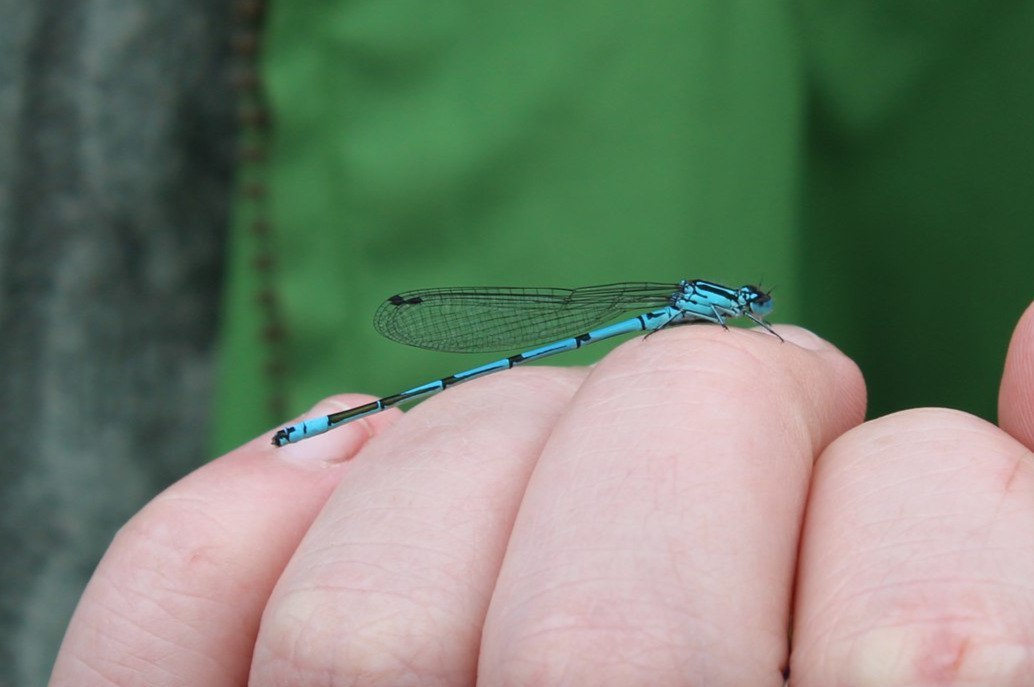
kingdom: Animalia
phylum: Arthropoda
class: Insecta
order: Odonata
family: Coenagrionidae
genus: Coenagrion
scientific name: Coenagrion puella
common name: Azure damselfly
